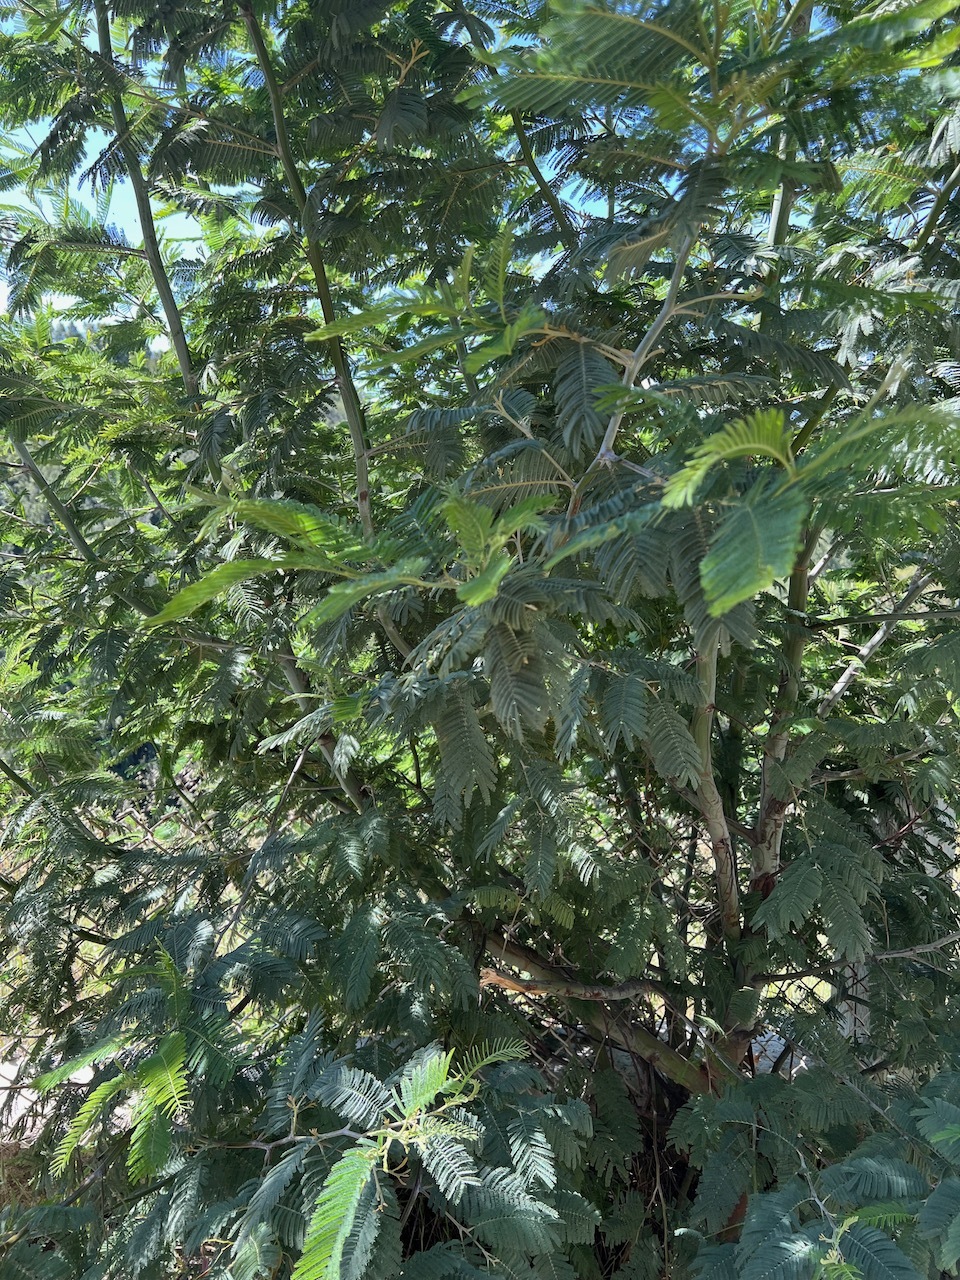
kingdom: Plantae
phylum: Tracheophyta
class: Magnoliopsida
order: Fabales
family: Fabaceae
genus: Acacia
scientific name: Acacia dealbata
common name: Silver wattle
